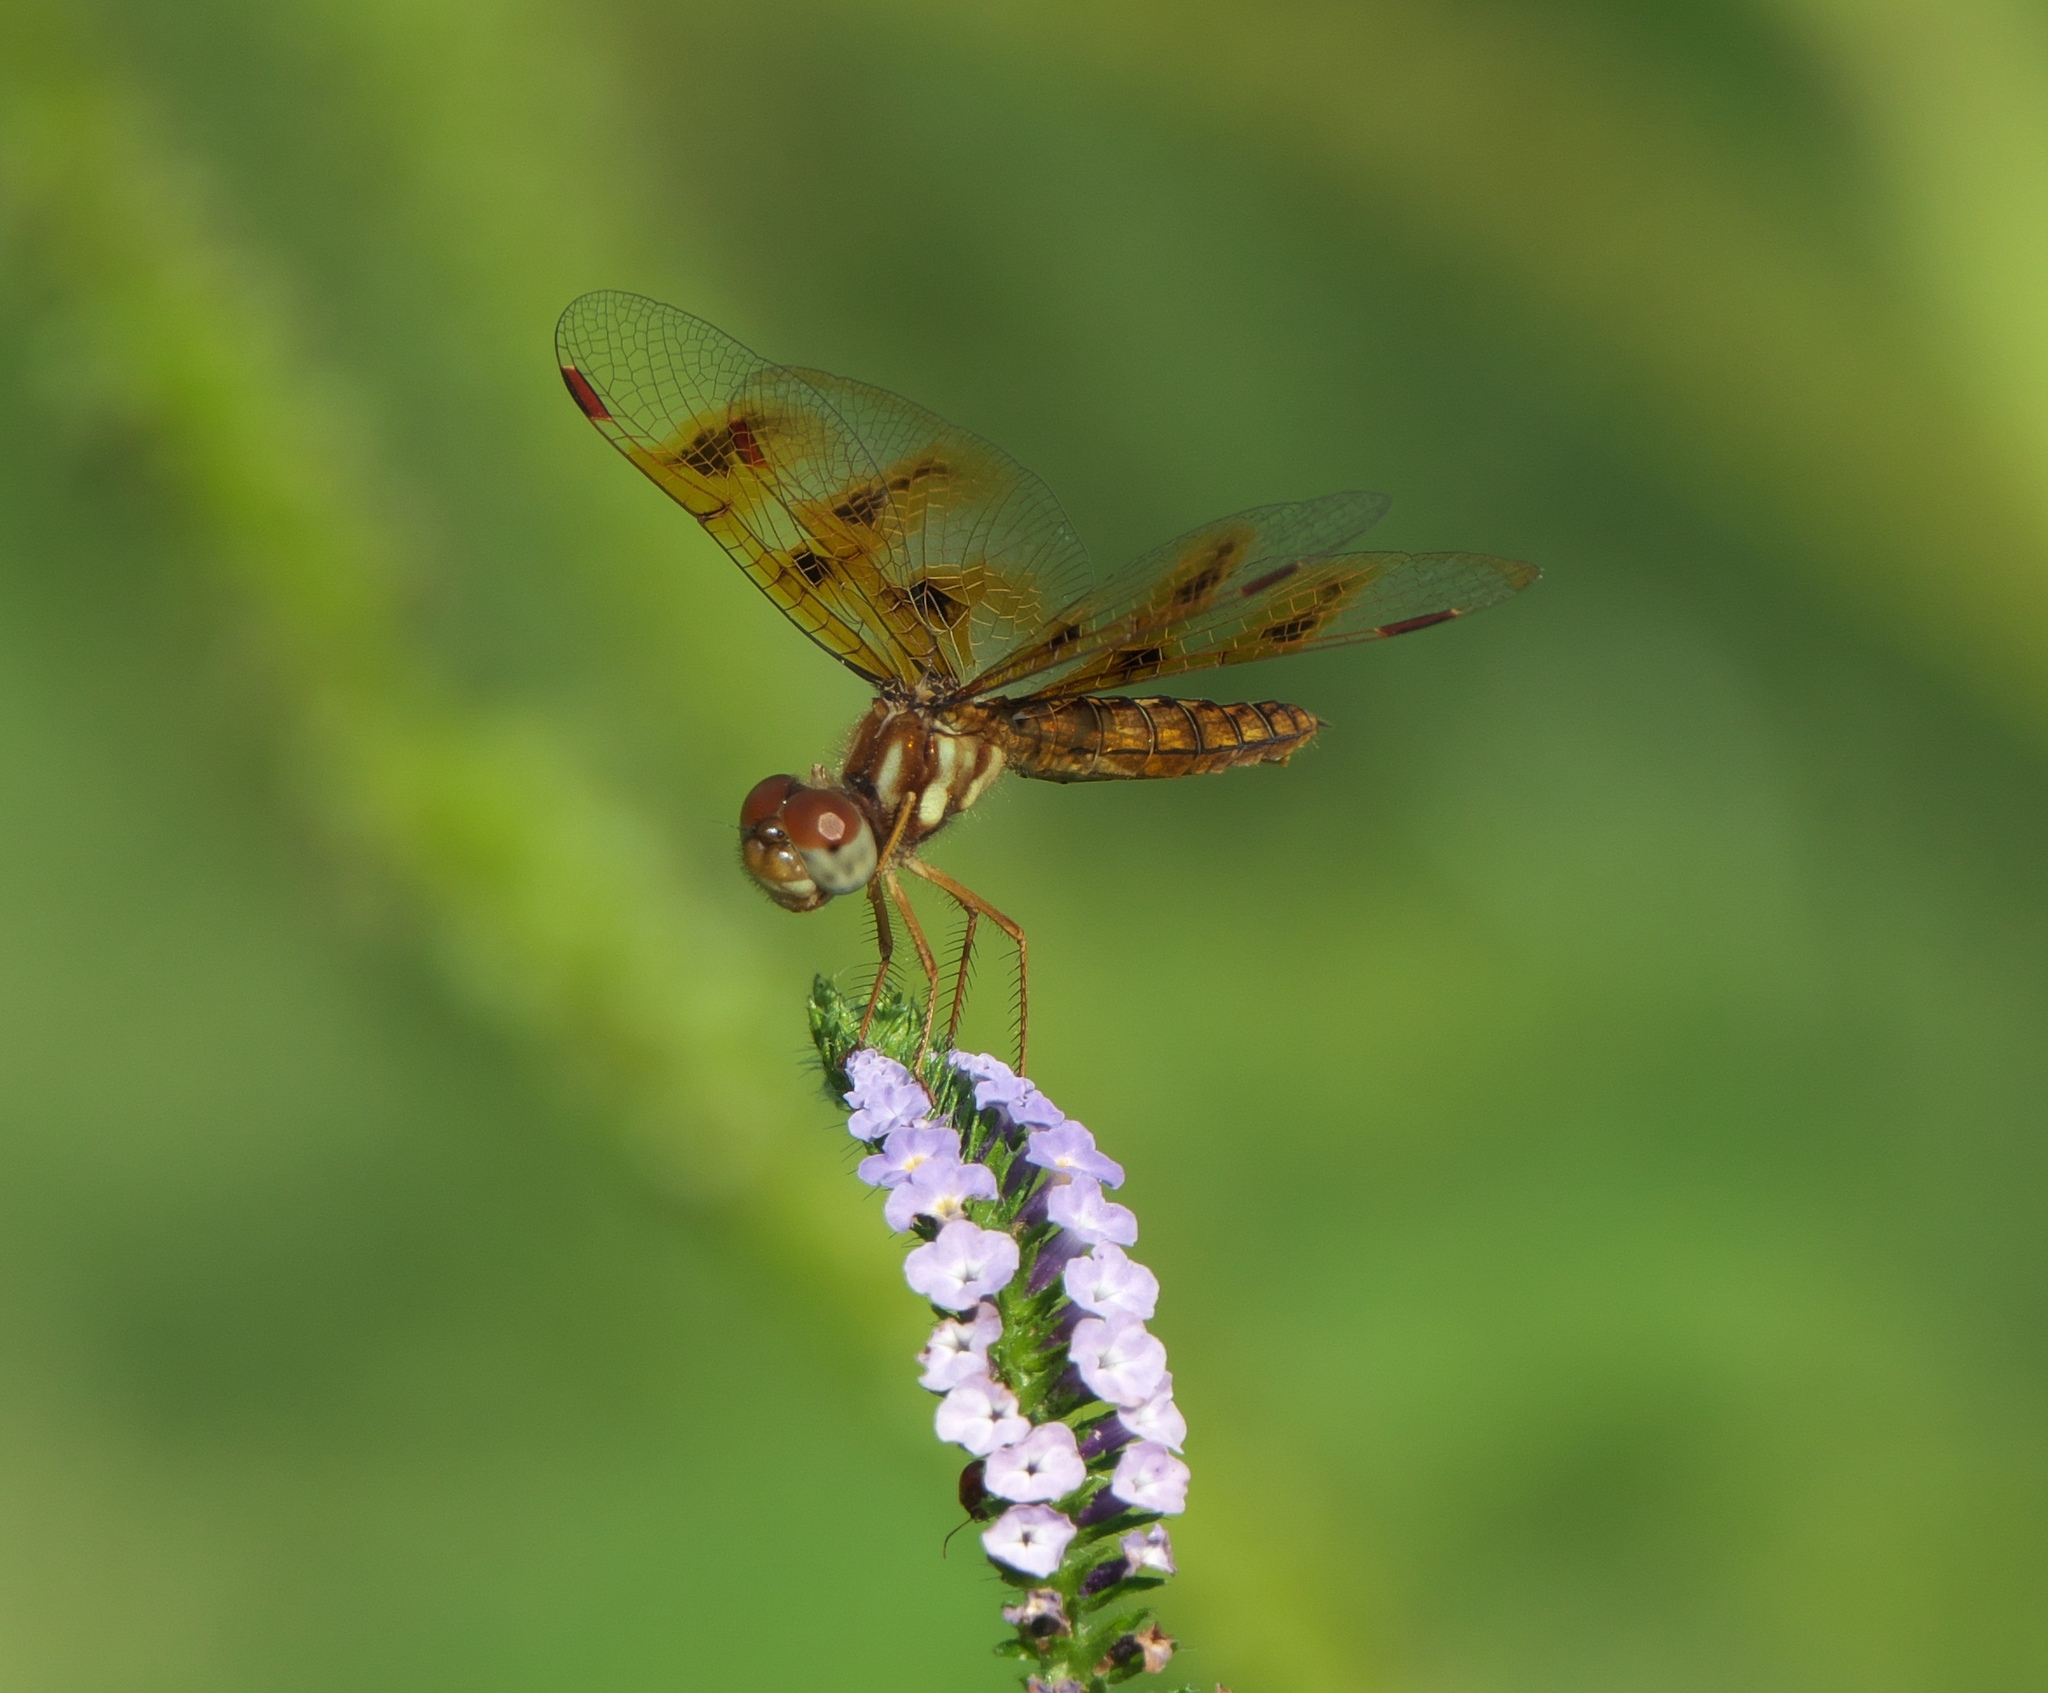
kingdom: Animalia
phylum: Arthropoda
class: Insecta
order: Odonata
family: Libellulidae
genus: Perithemis
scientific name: Perithemis tenera
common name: Eastern amberwing
